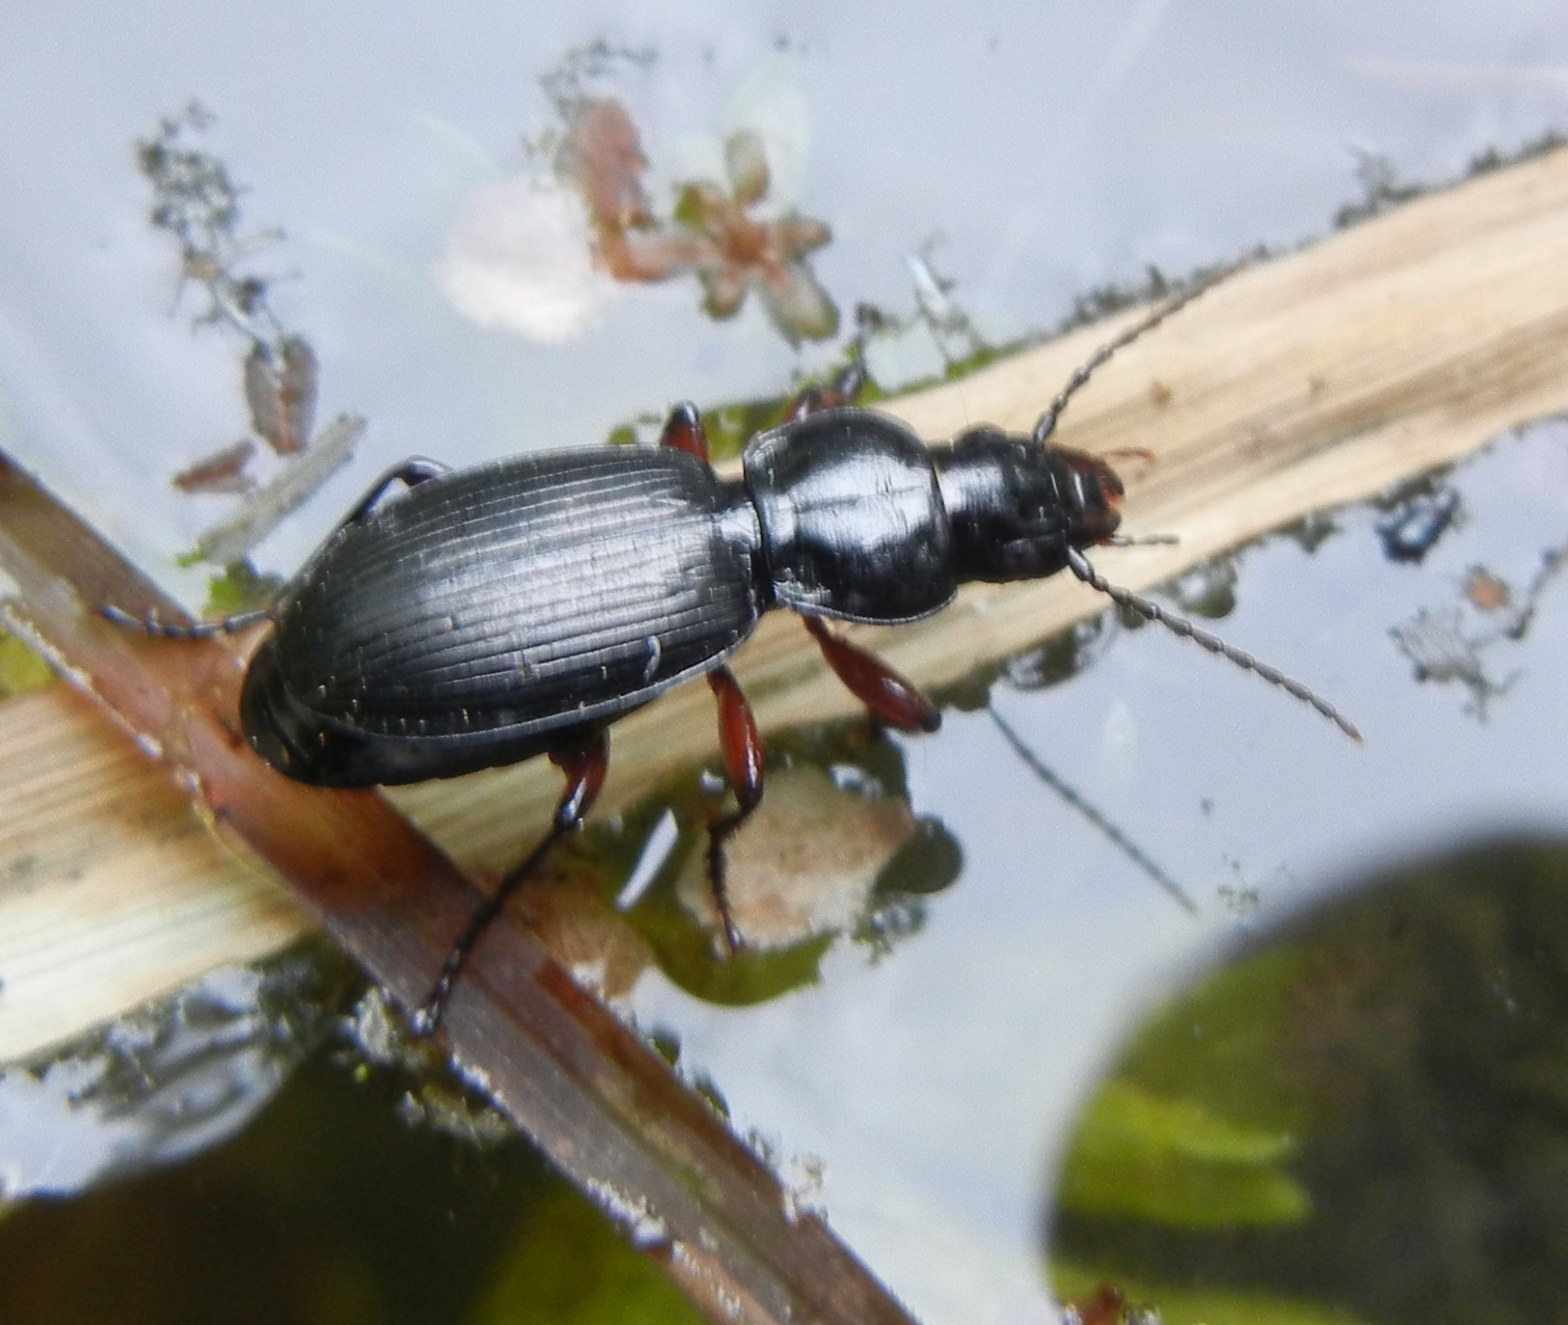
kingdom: Animalia
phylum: Arthropoda
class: Insecta
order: Coleoptera
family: Carabidae
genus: Pterostichus
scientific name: Pterostichus madidus
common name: Black clock
